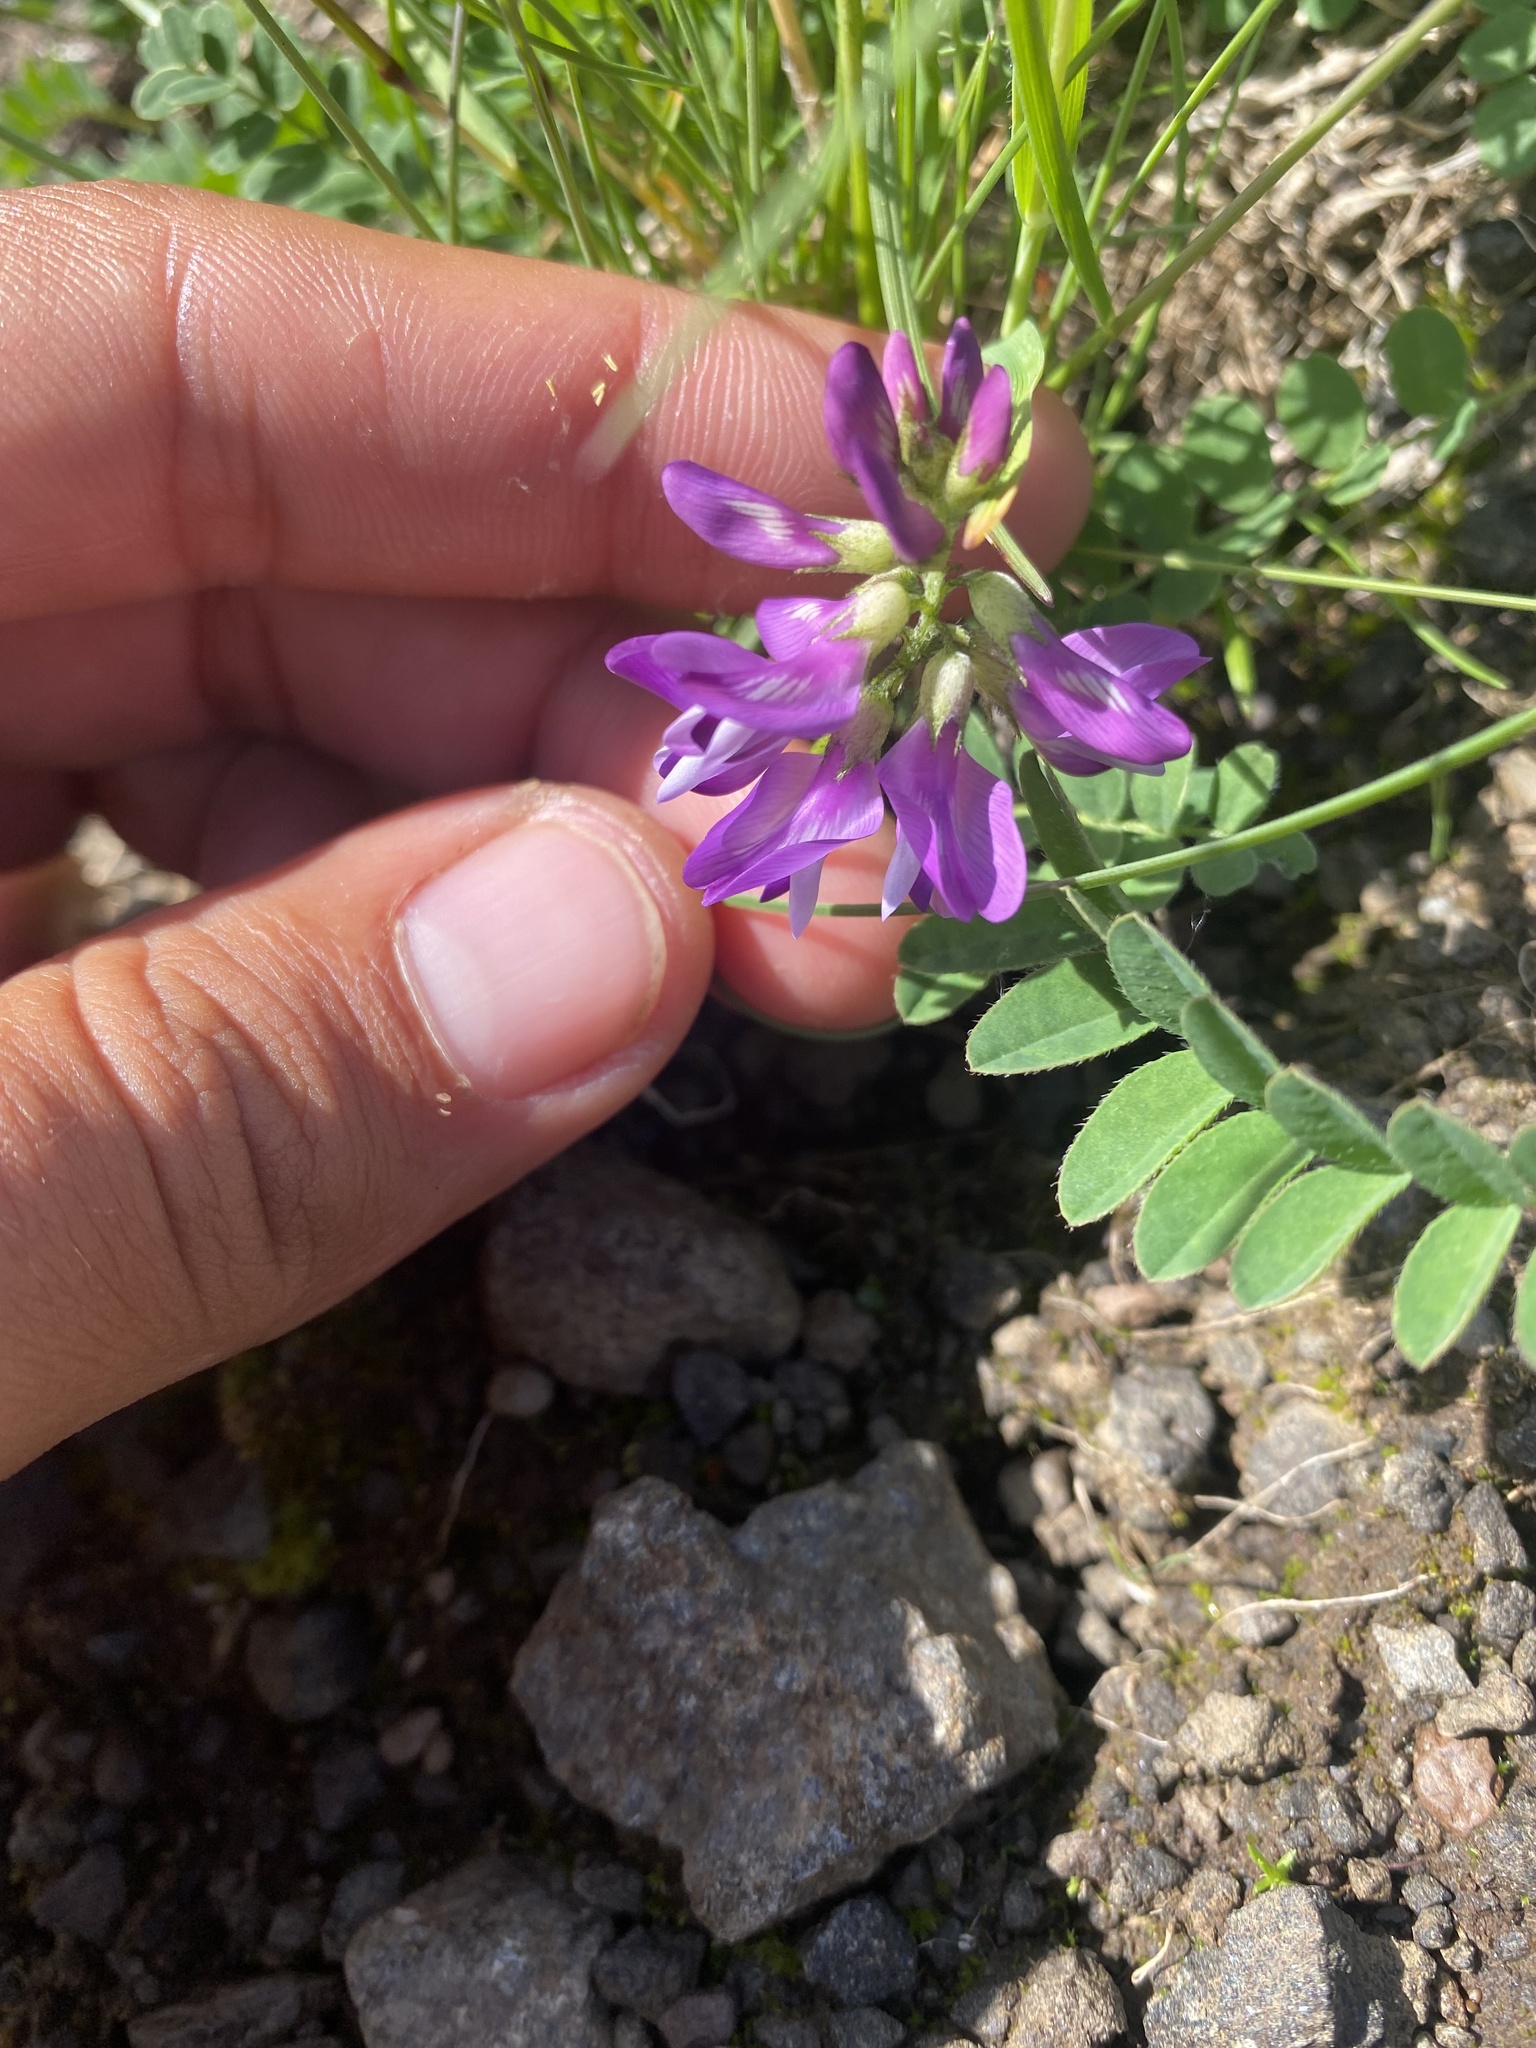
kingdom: Plantae
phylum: Tracheophyta
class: Magnoliopsida
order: Fabales
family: Fabaceae
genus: Astragalus
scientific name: Astragalus alpinus
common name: Alpine milk-vetch
